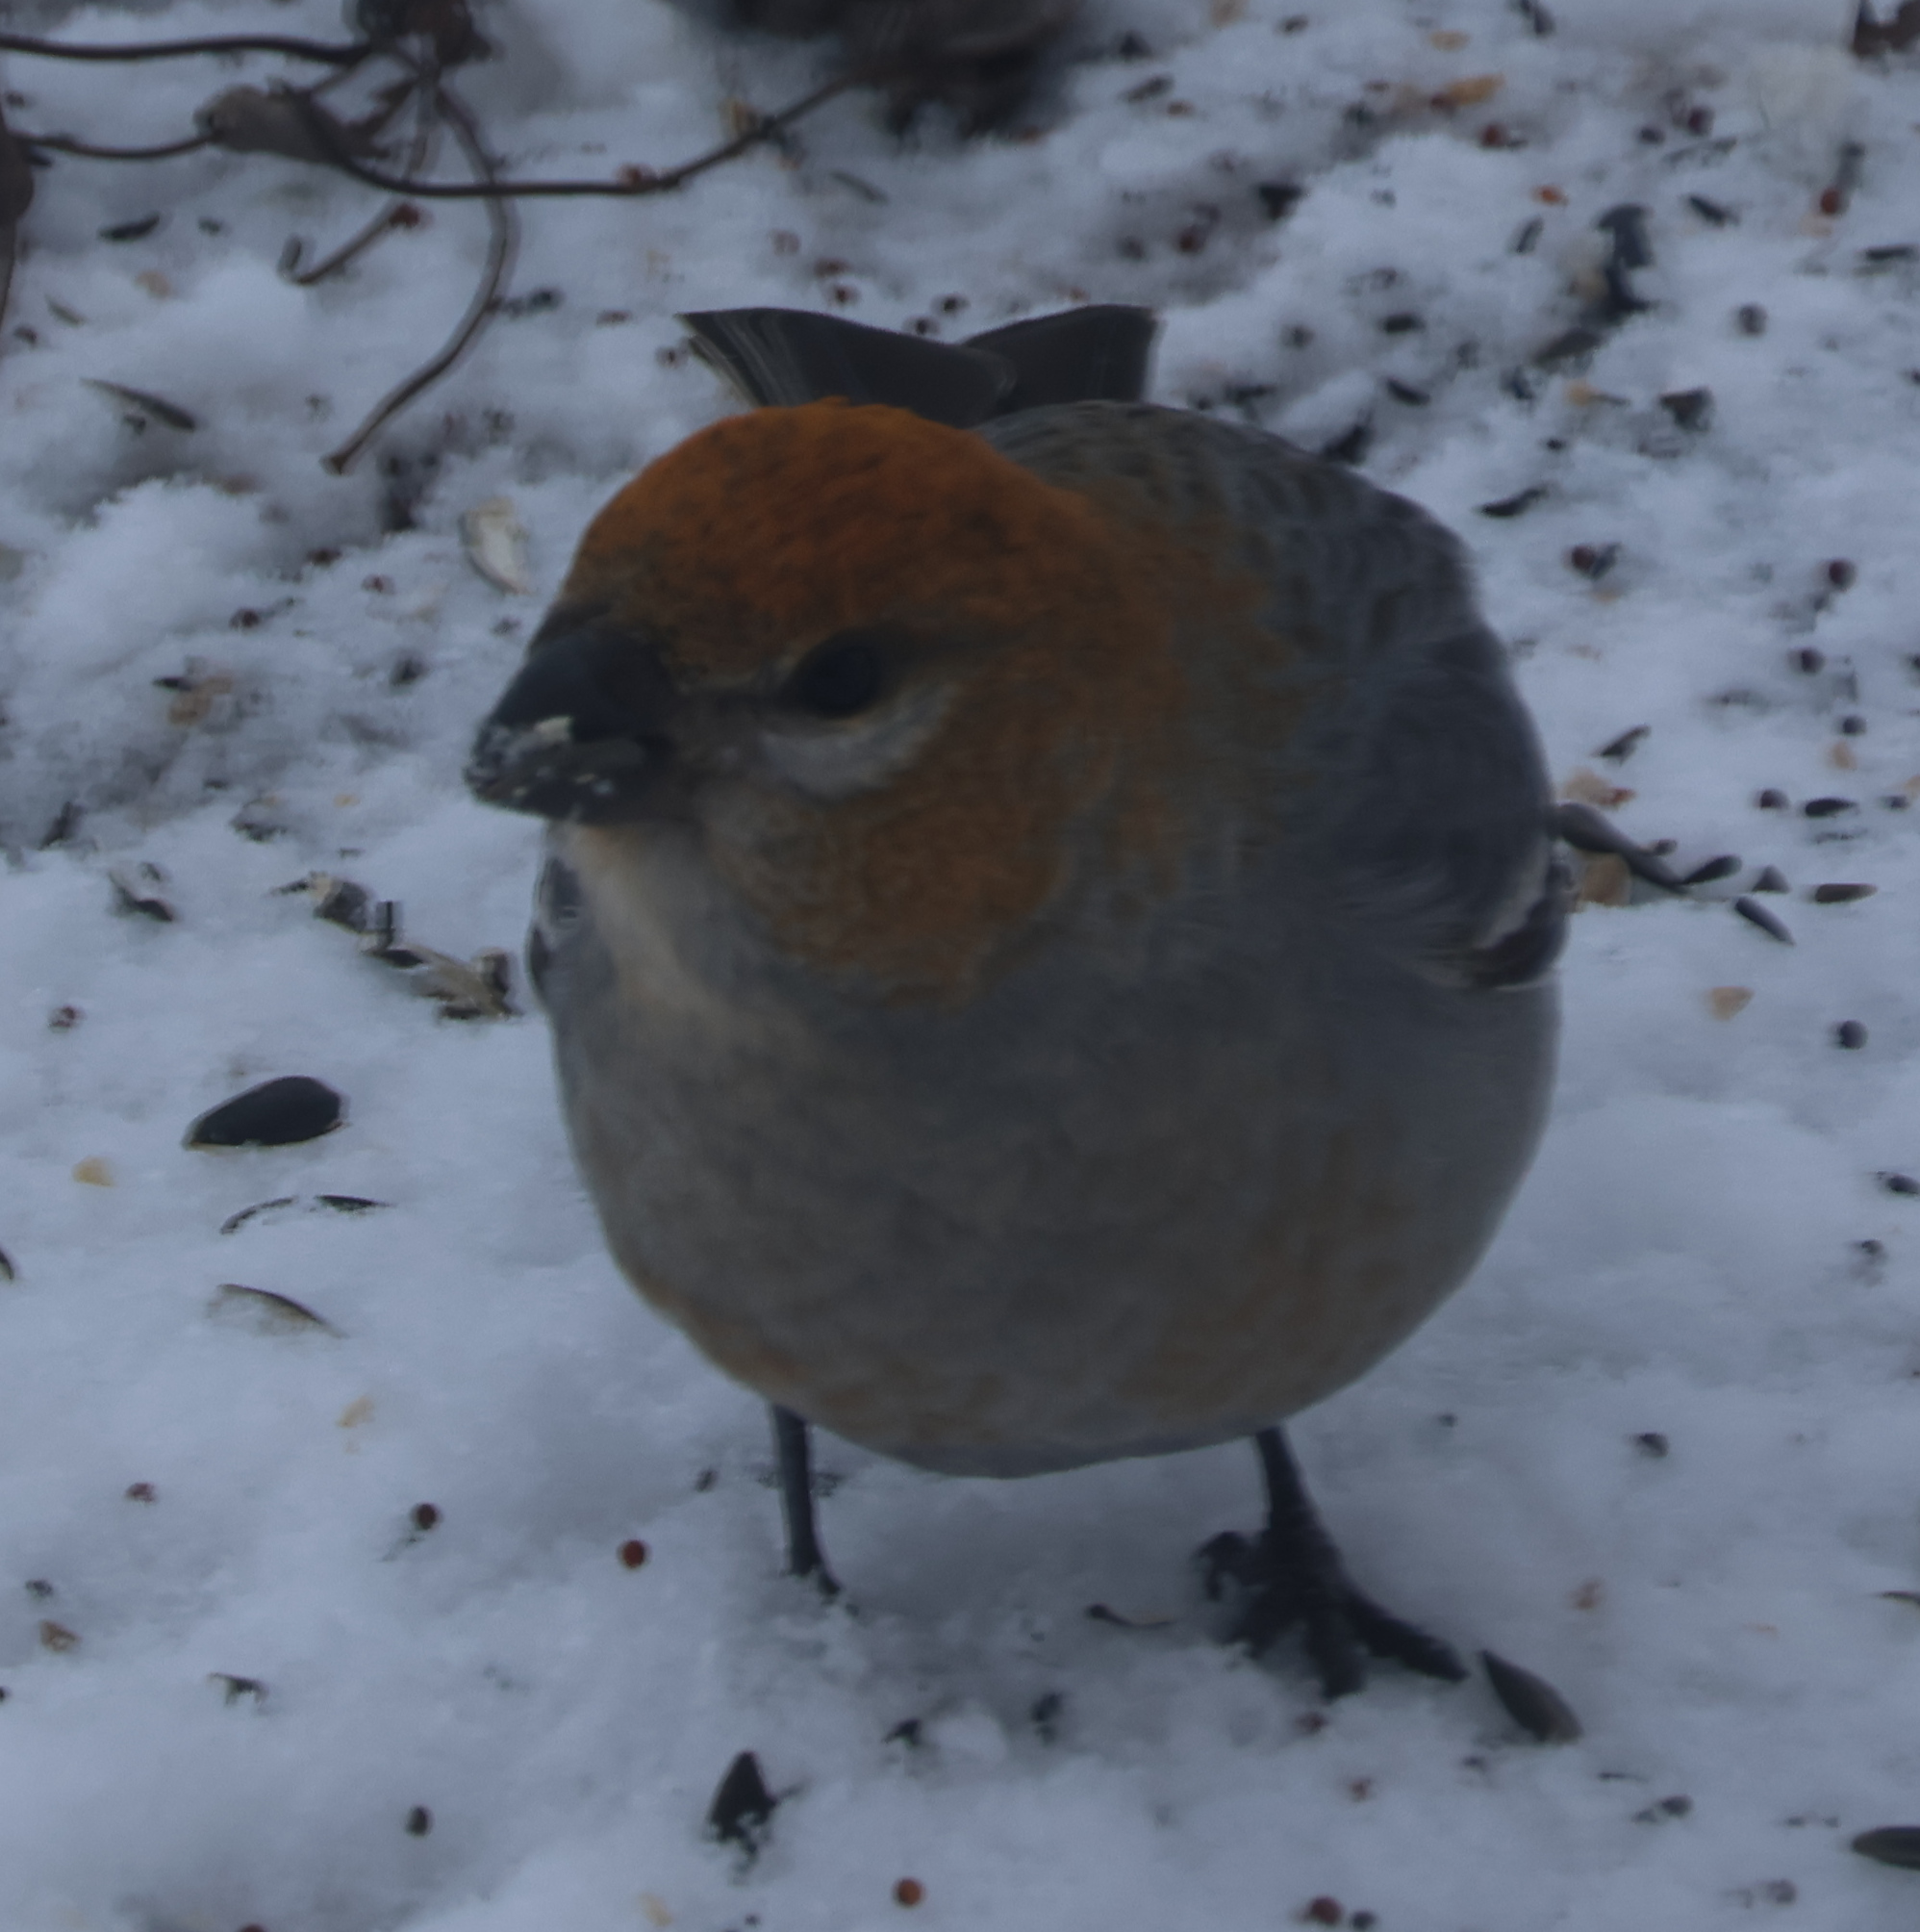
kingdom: Animalia
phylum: Chordata
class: Aves
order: Passeriformes
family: Fringillidae
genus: Pinicola
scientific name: Pinicola enucleator
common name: Pine grosbeak
